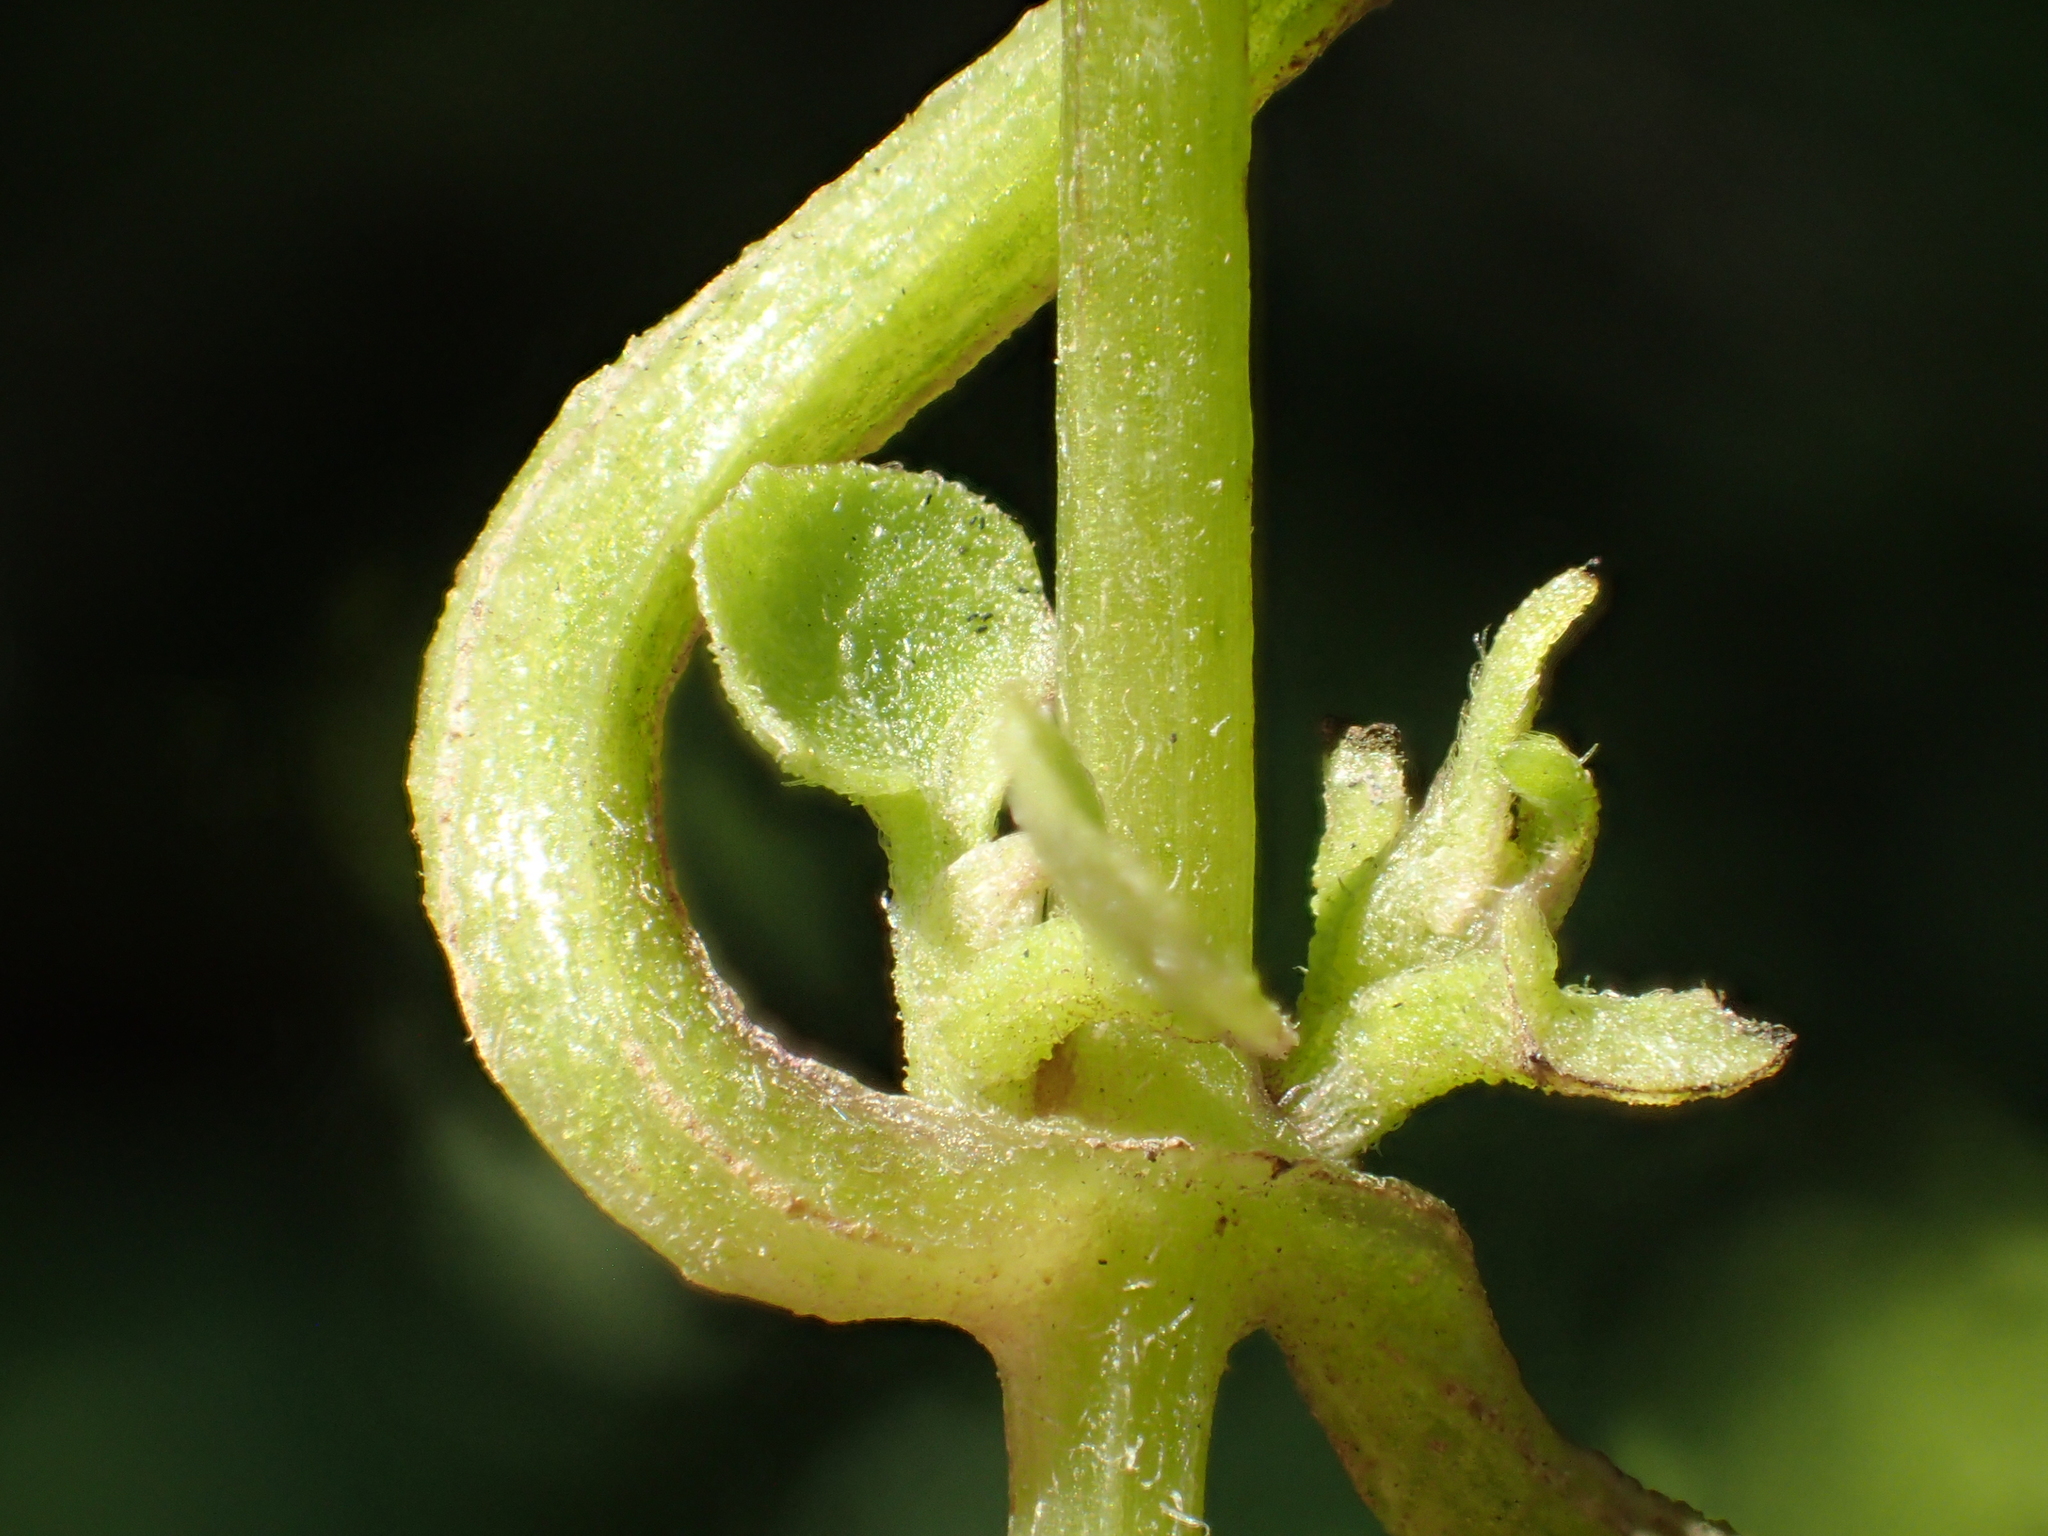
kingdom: Plantae
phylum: Tracheophyta
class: Magnoliopsida
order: Asterales
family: Asteraceae
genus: Mikania
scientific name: Mikania micrantha
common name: Mile-a-minute
